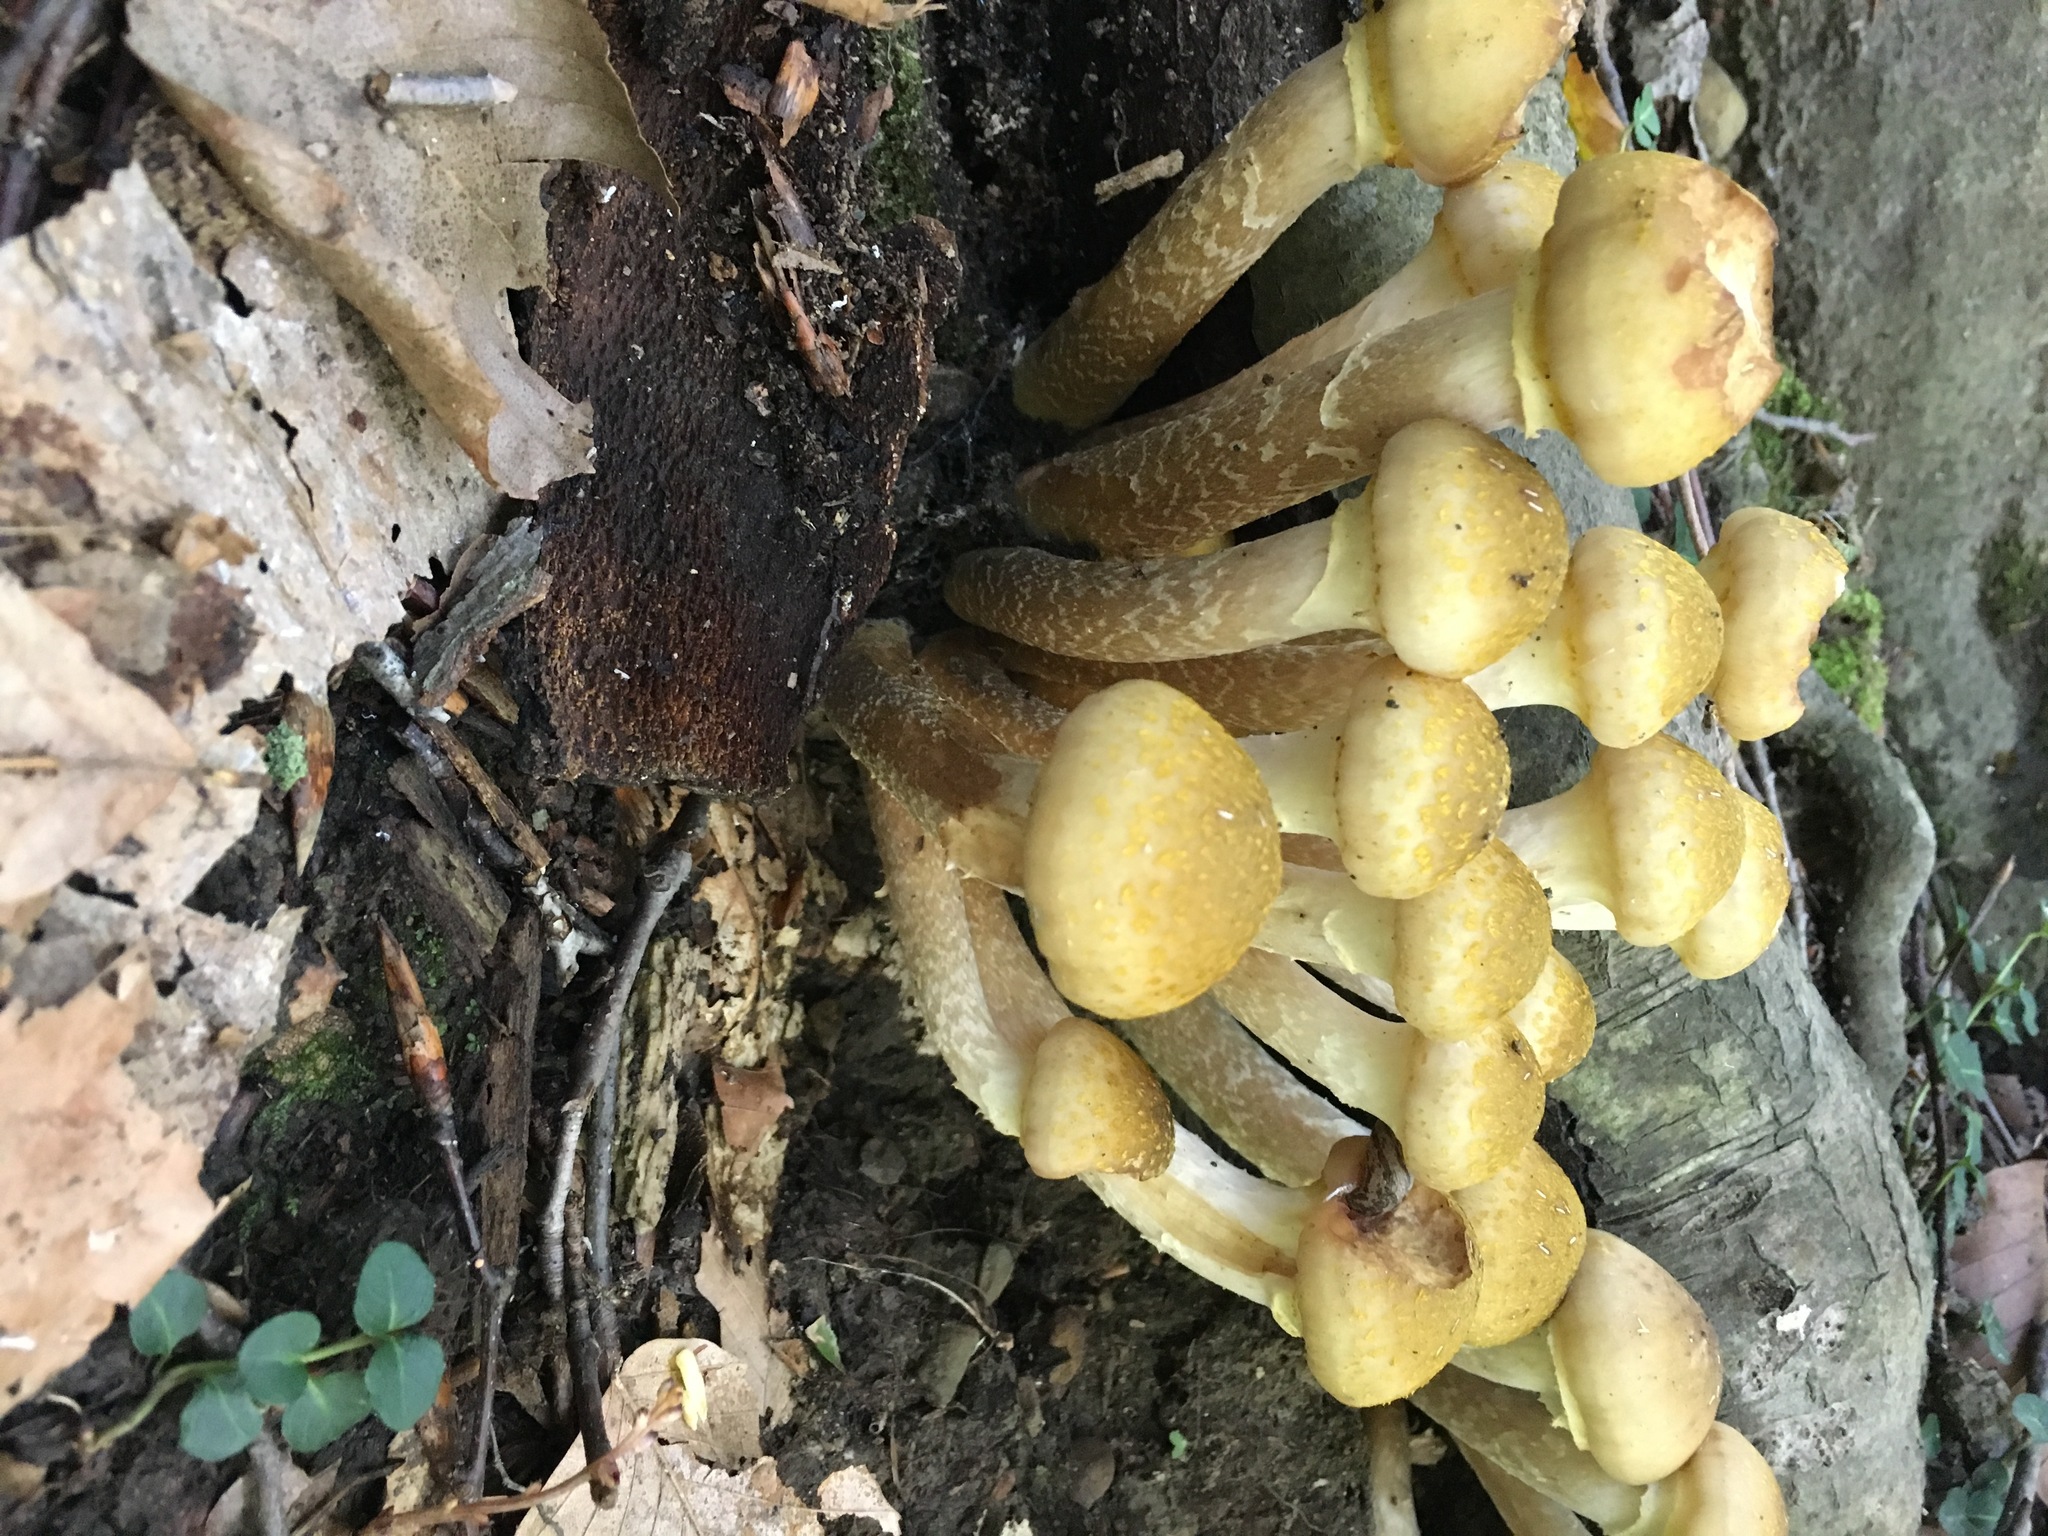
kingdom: Fungi
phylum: Basidiomycota
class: Agaricomycetes
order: Agaricales
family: Physalacriaceae
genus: Armillaria
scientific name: Armillaria mellea
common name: Honey fungus
